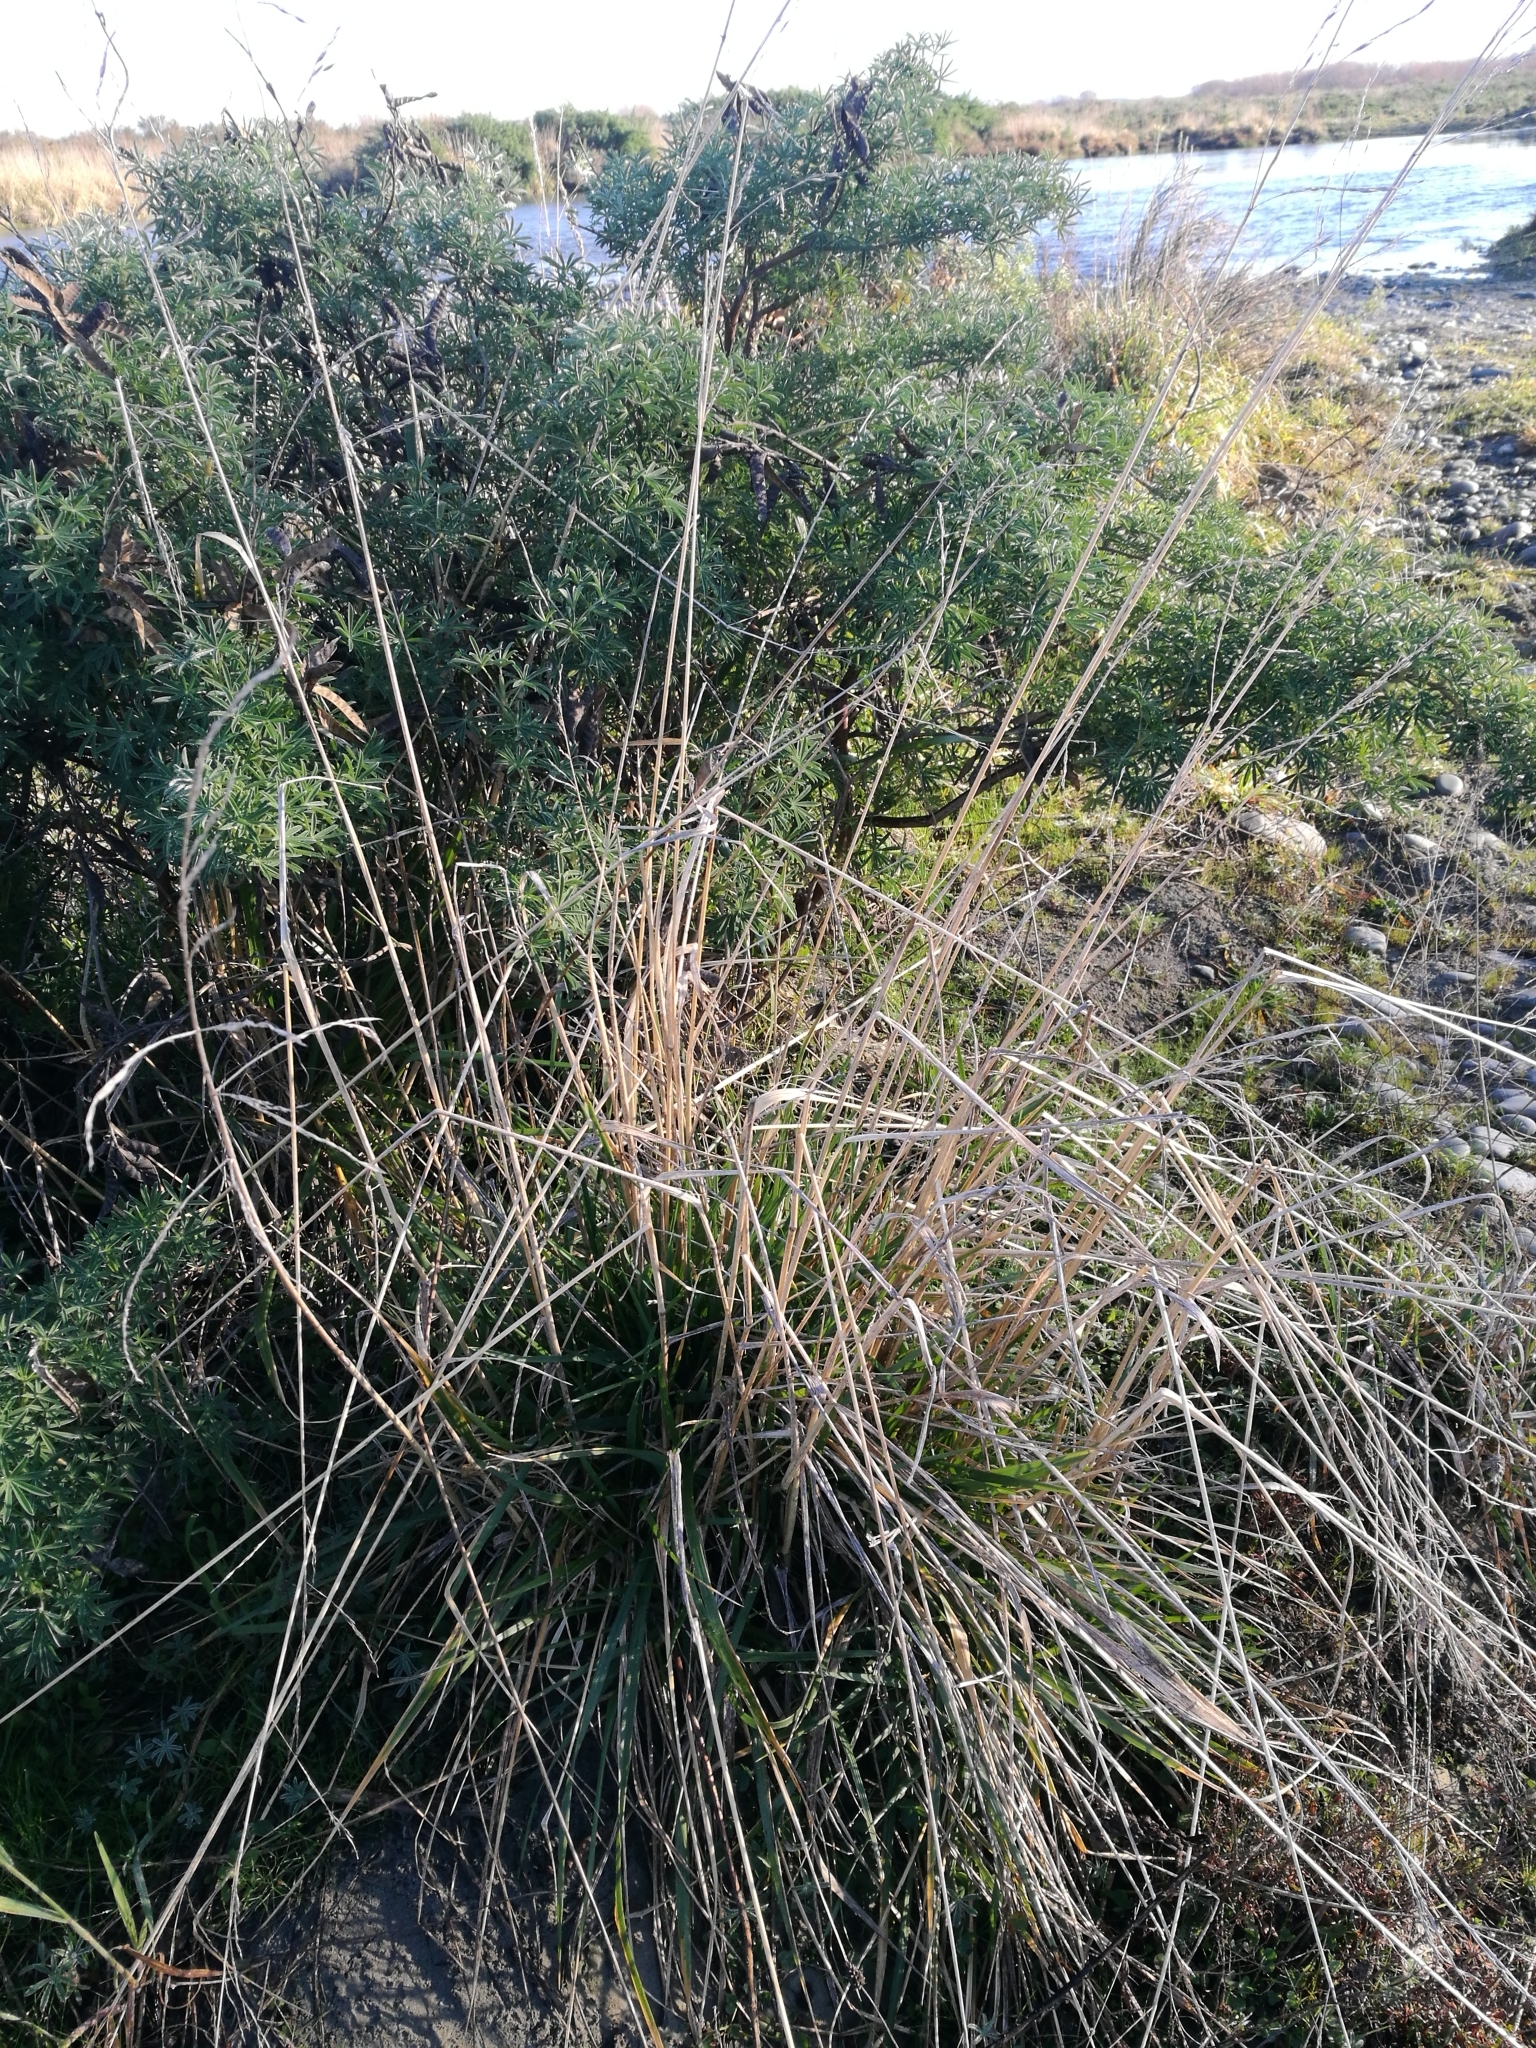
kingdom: Plantae
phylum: Tracheophyta
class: Liliopsida
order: Poales
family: Poaceae
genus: Lolium
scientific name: Lolium arundinaceum
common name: Reed fescue
